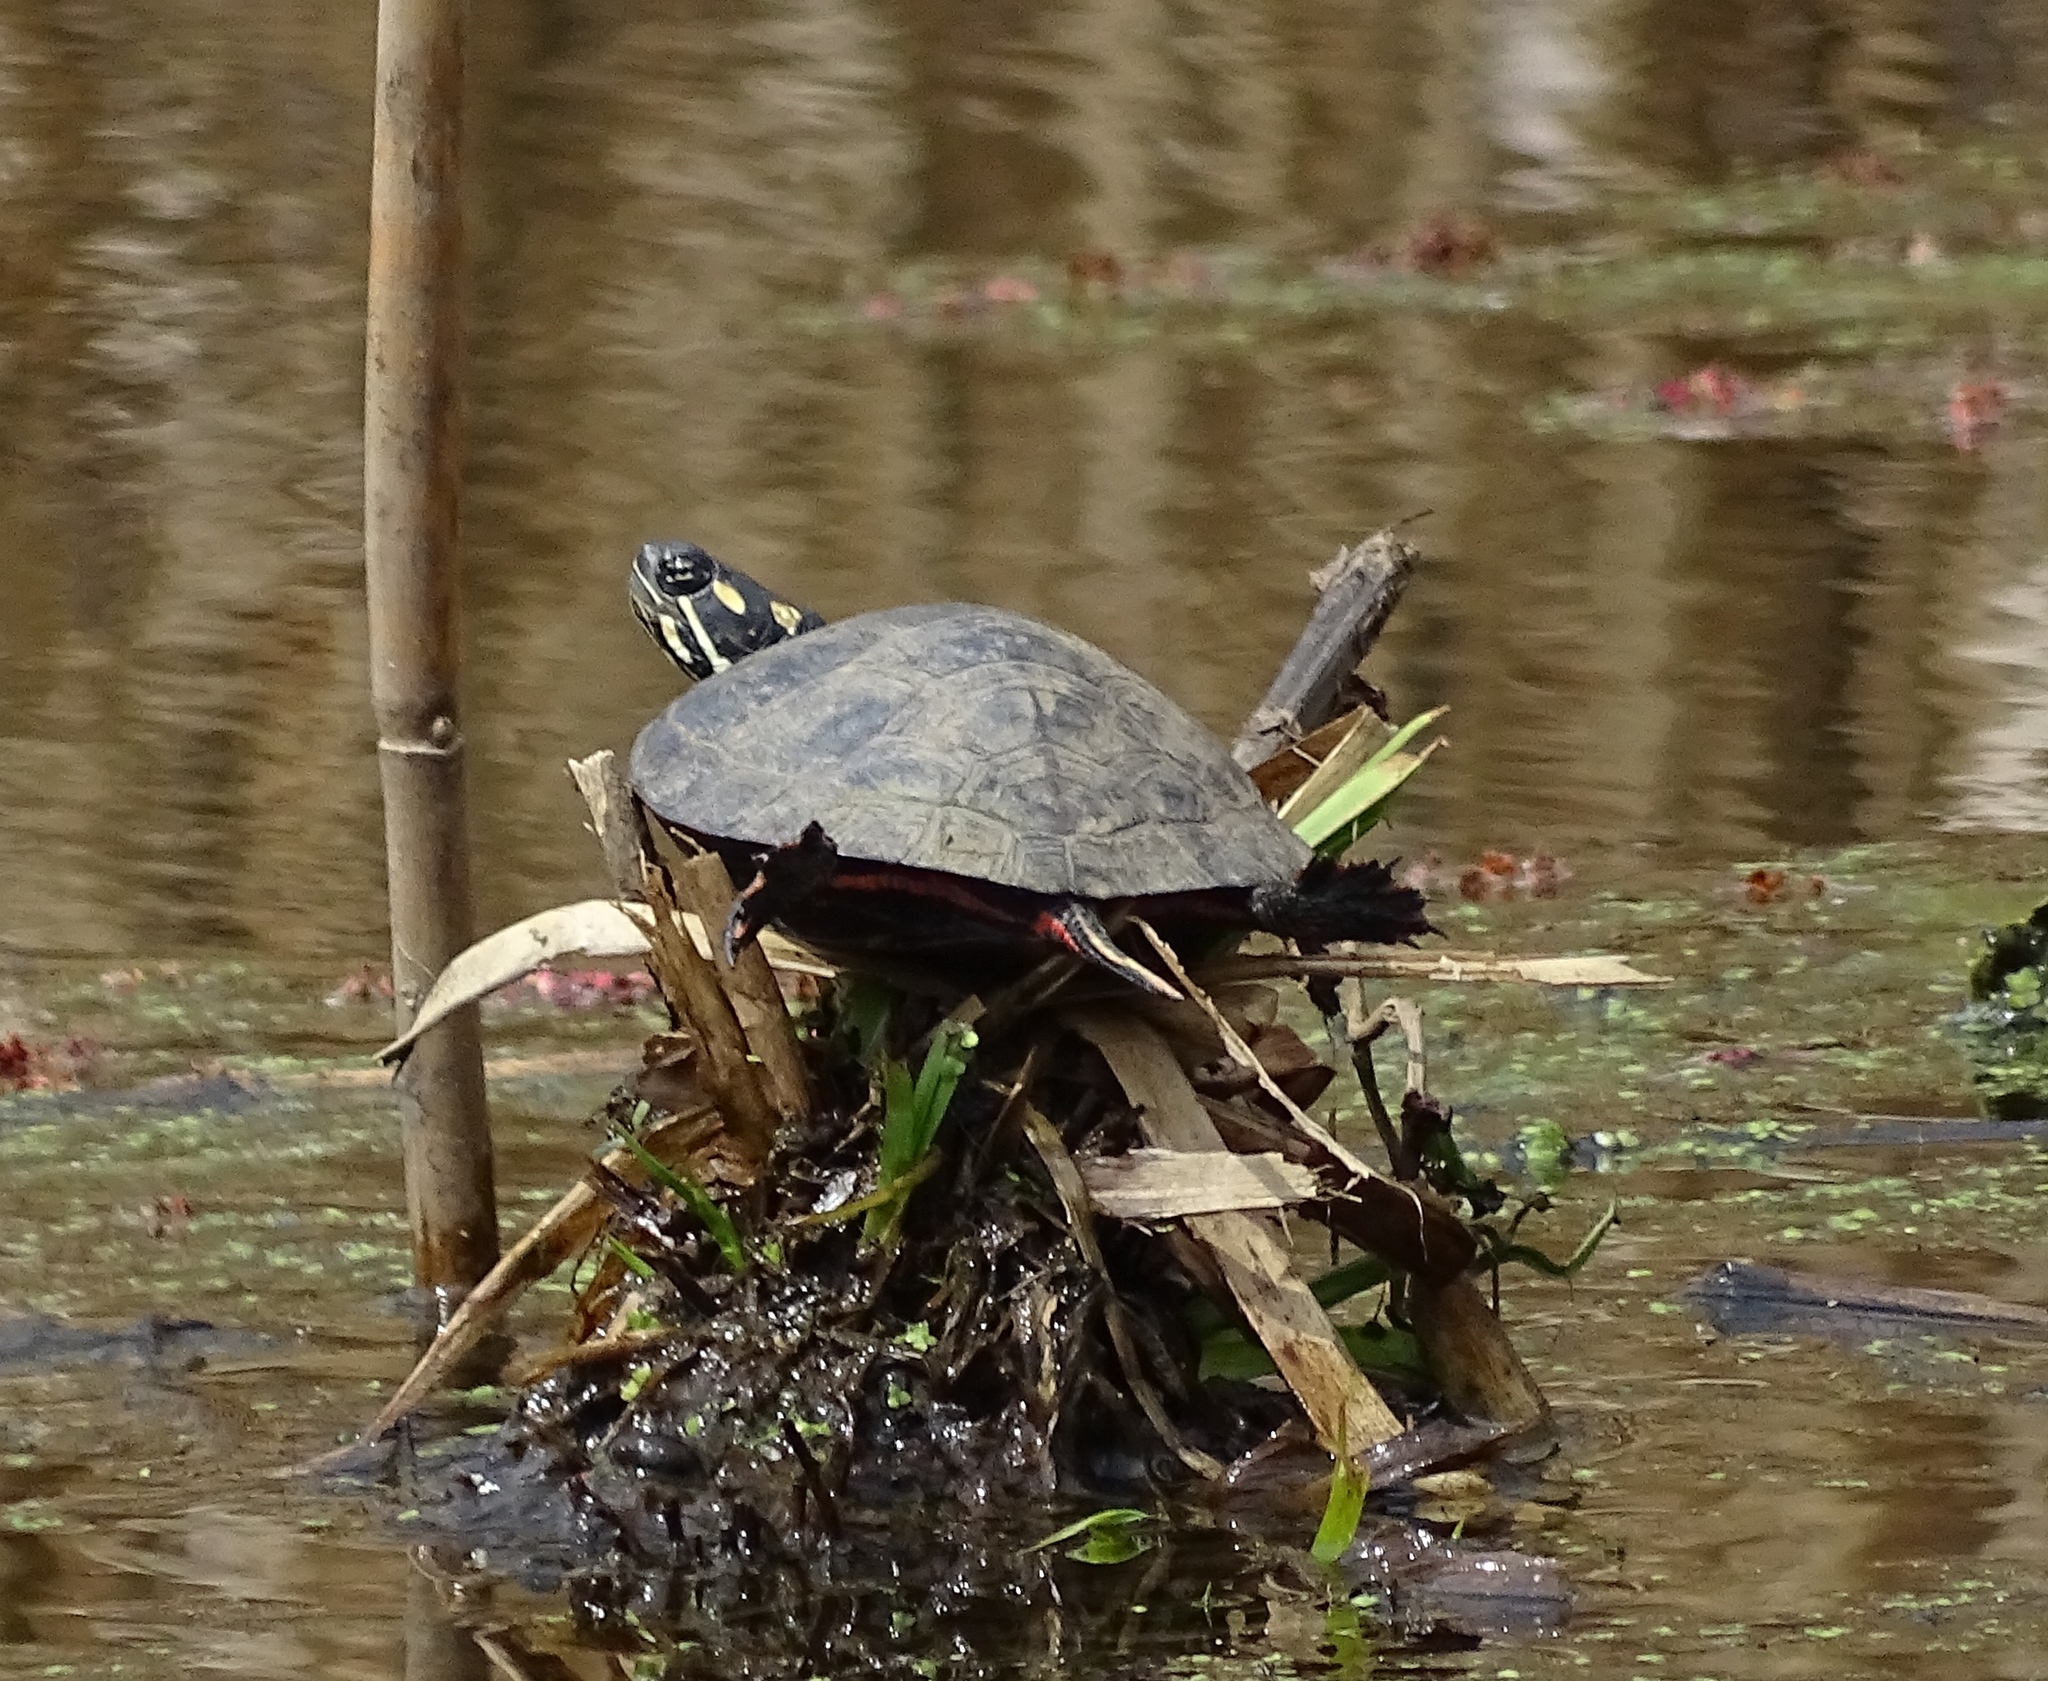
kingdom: Animalia
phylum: Chordata
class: Testudines
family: Emydidae
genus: Chrysemys
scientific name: Chrysemys picta
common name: Painted turtle
